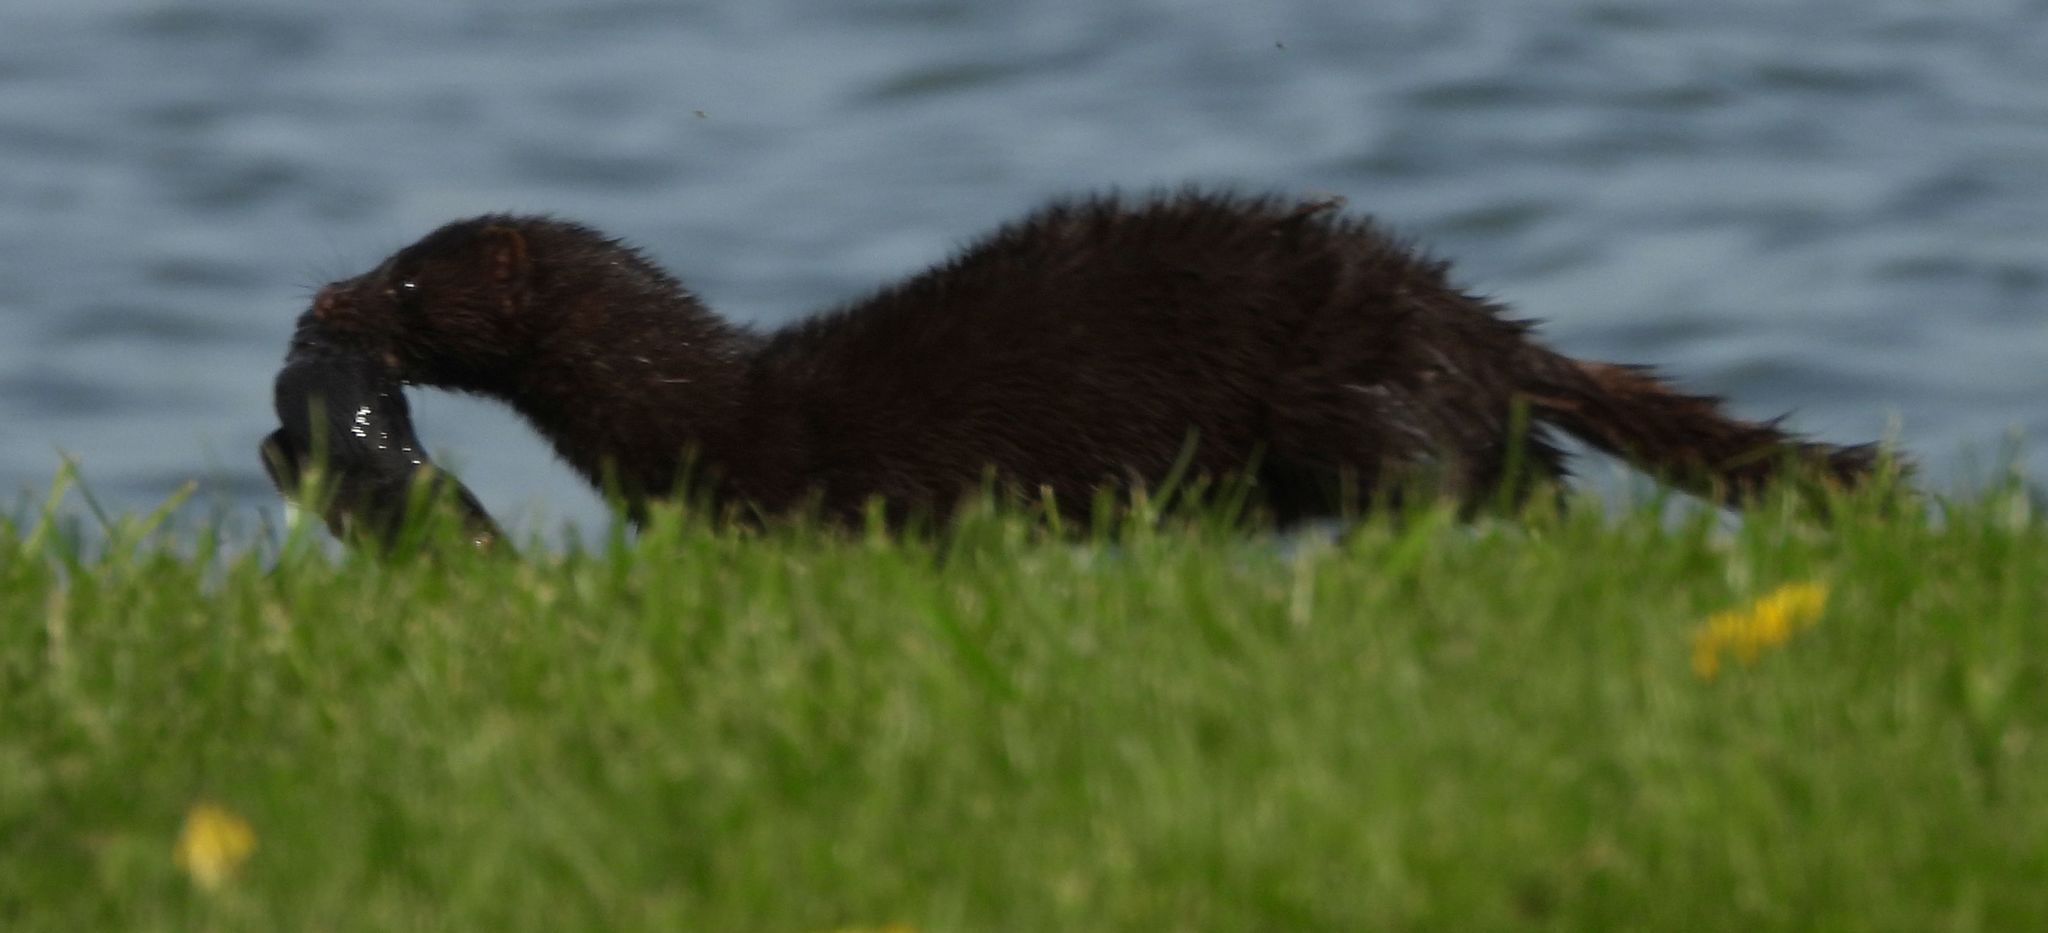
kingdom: Animalia
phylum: Chordata
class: Mammalia
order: Carnivora
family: Mustelidae
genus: Mustela
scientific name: Mustela
